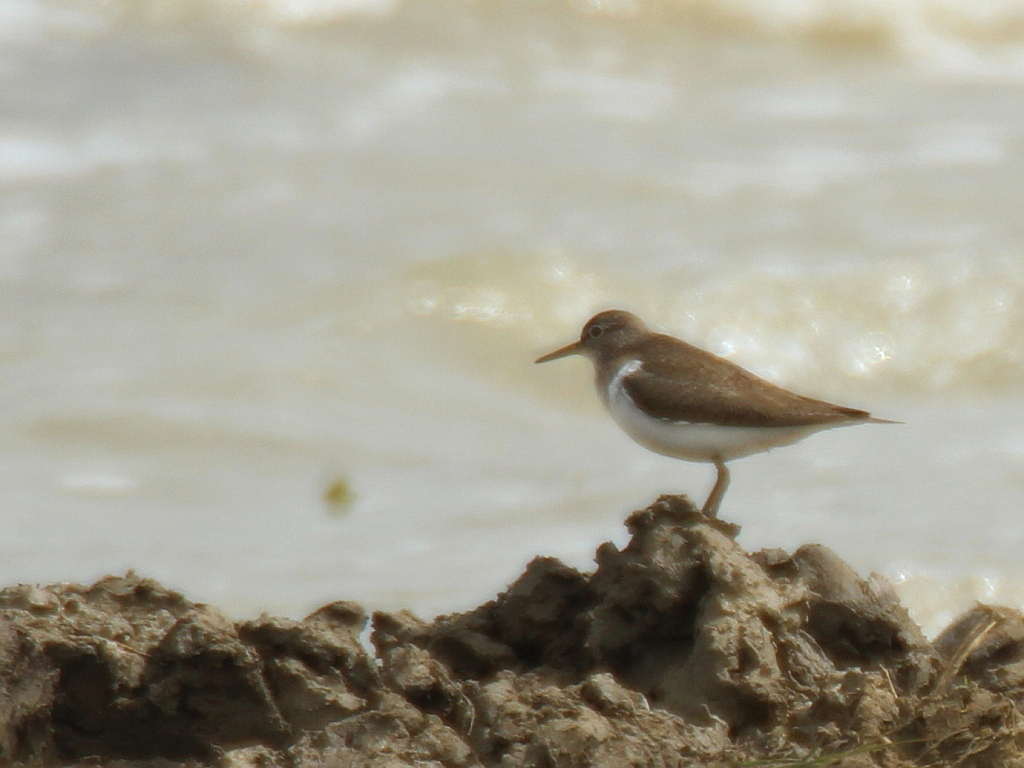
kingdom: Animalia
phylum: Chordata
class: Aves
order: Charadriiformes
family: Scolopacidae
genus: Actitis
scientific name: Actitis hypoleucos
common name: Common sandpiper
